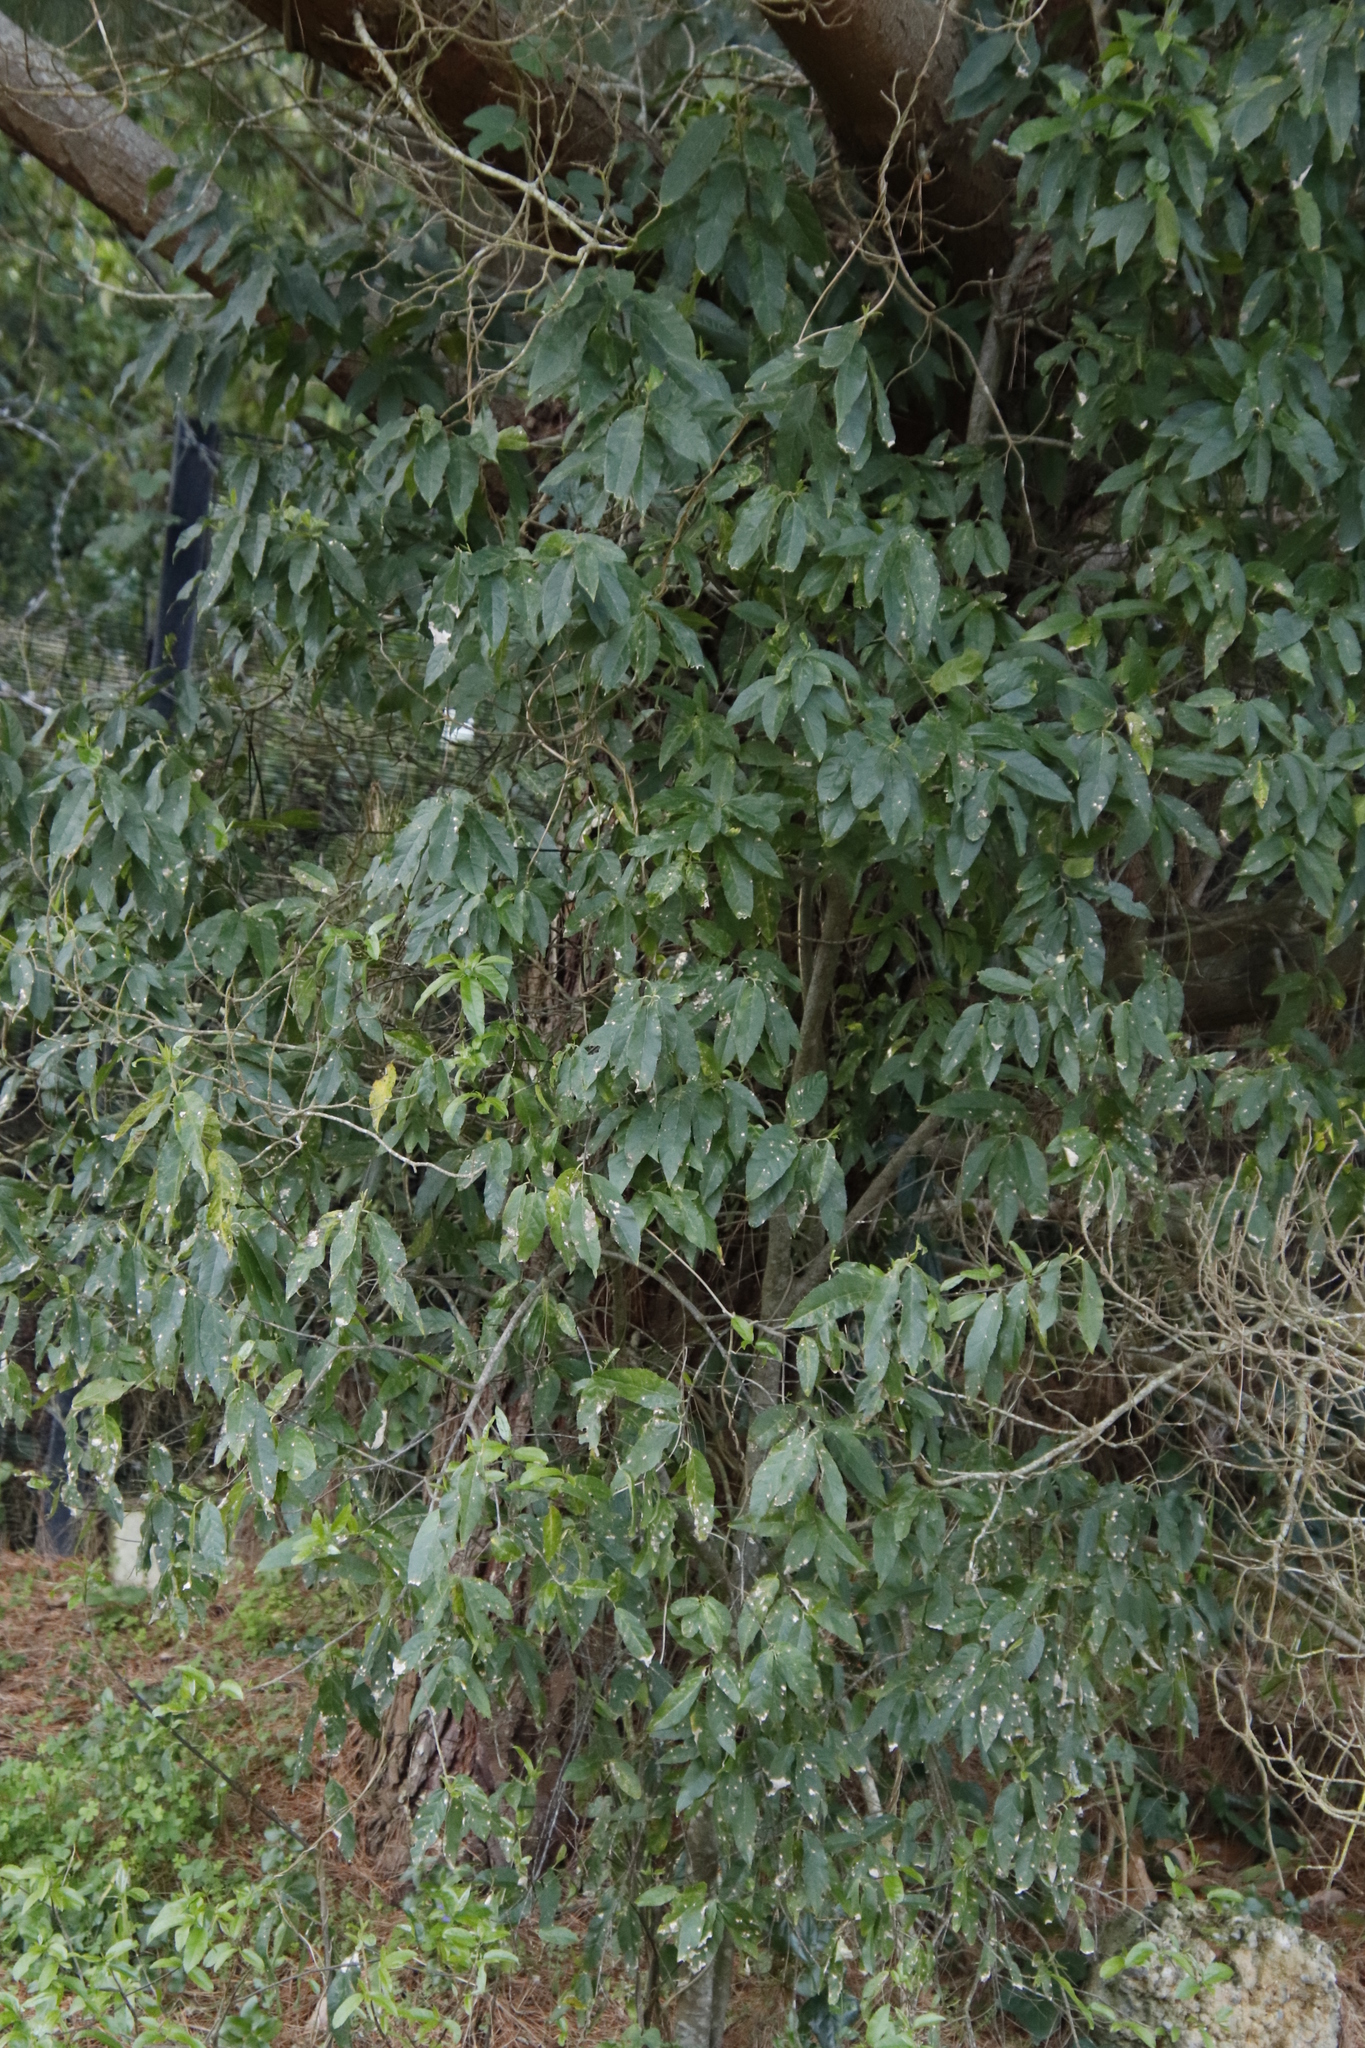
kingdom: Plantae
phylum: Tracheophyta
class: Magnoliopsida
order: Malpighiales
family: Achariaceae
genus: Kiggelaria
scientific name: Kiggelaria africana
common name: Wild peach
